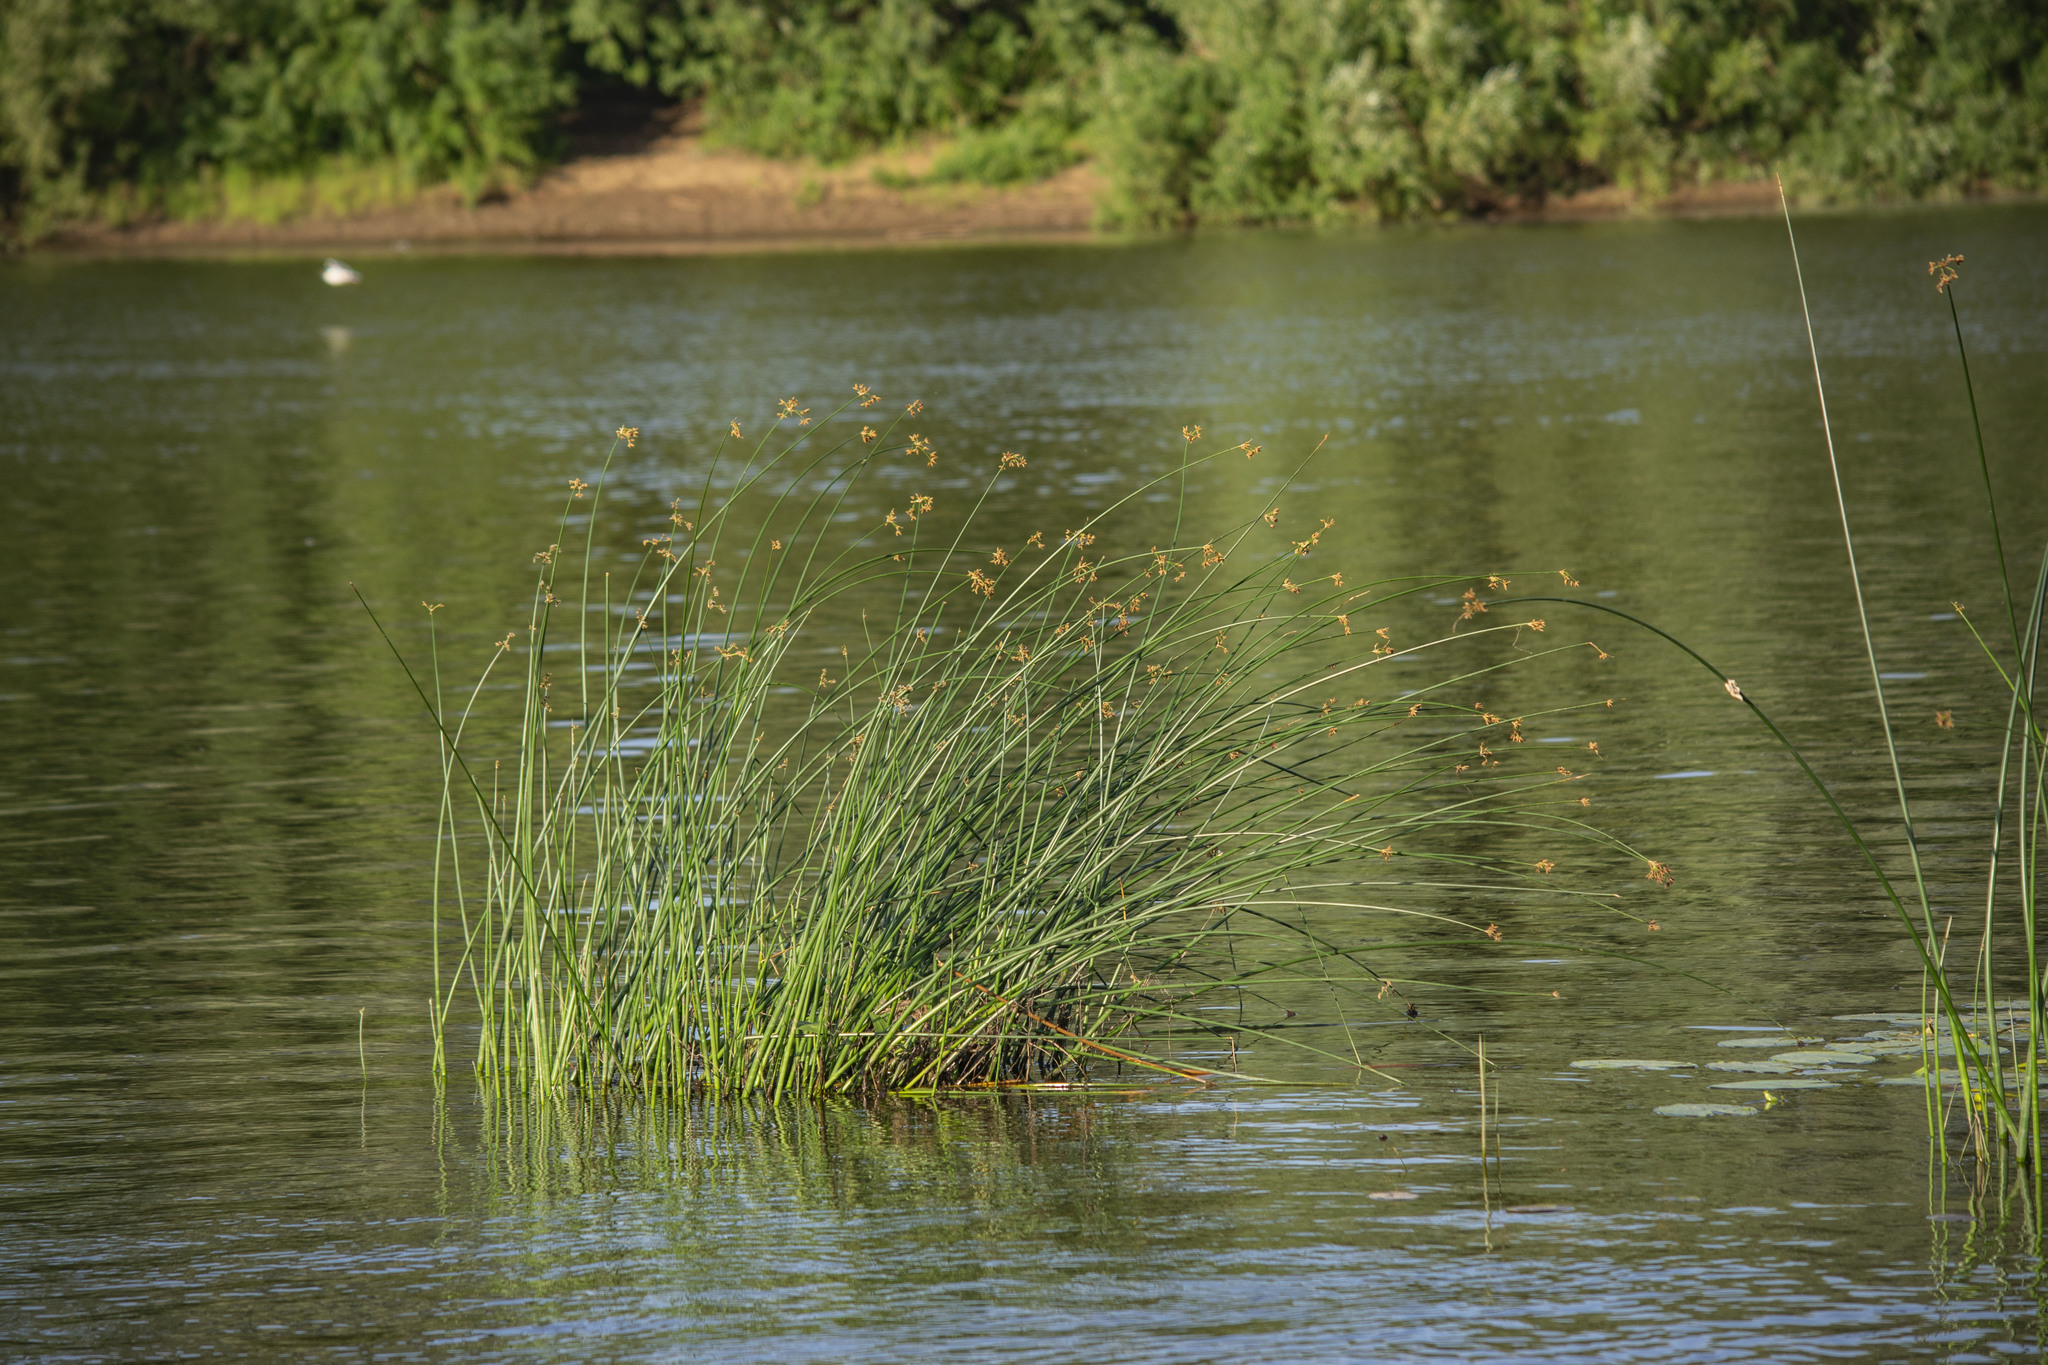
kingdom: Plantae
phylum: Tracheophyta
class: Liliopsida
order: Poales
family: Cyperaceae
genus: Schoenoplectus
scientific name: Schoenoplectus lacustris
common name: Common club-rush
